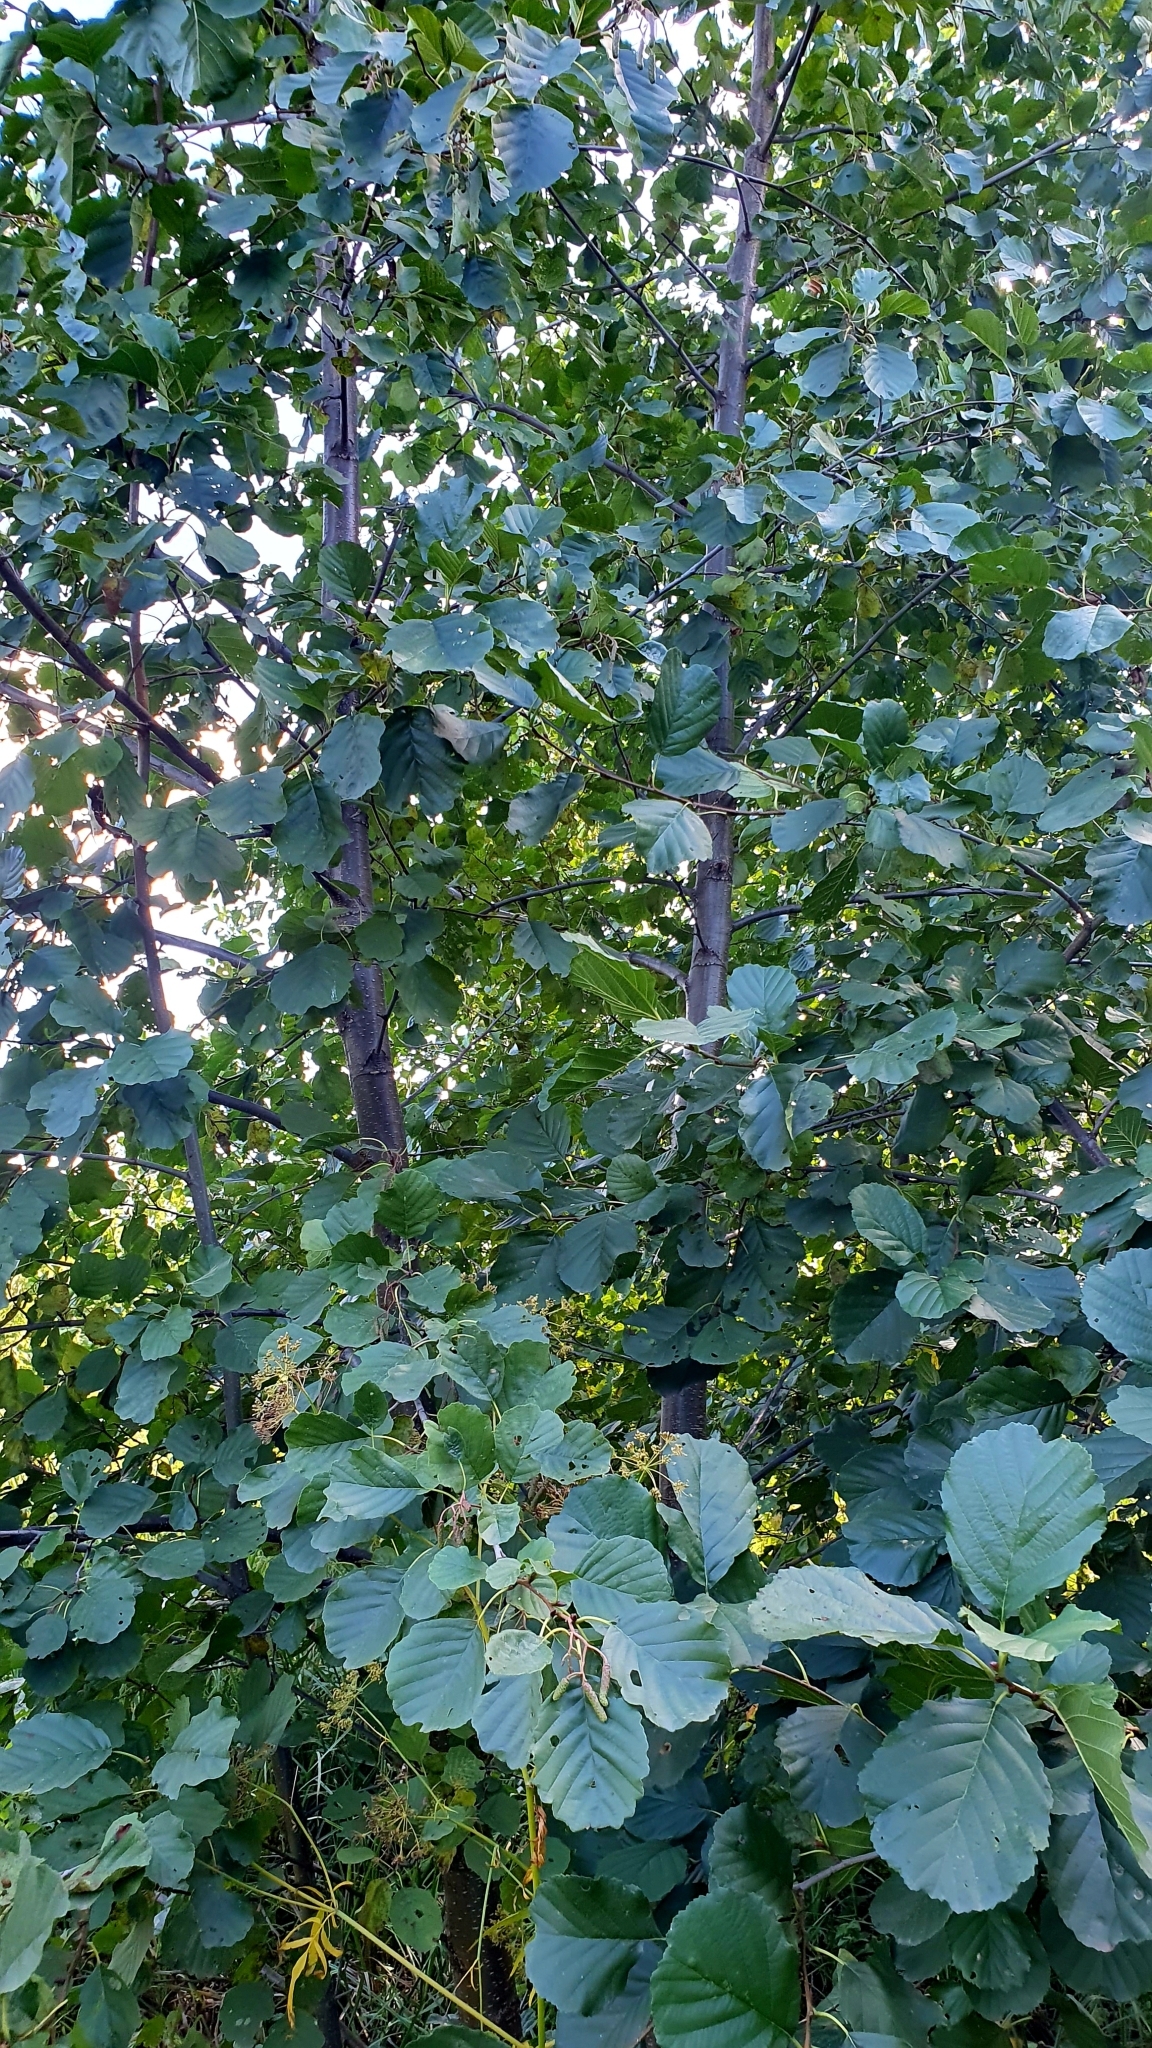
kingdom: Plantae
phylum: Tracheophyta
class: Magnoliopsida
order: Fagales
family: Betulaceae
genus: Alnus
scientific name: Alnus glutinosa
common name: Black alder
